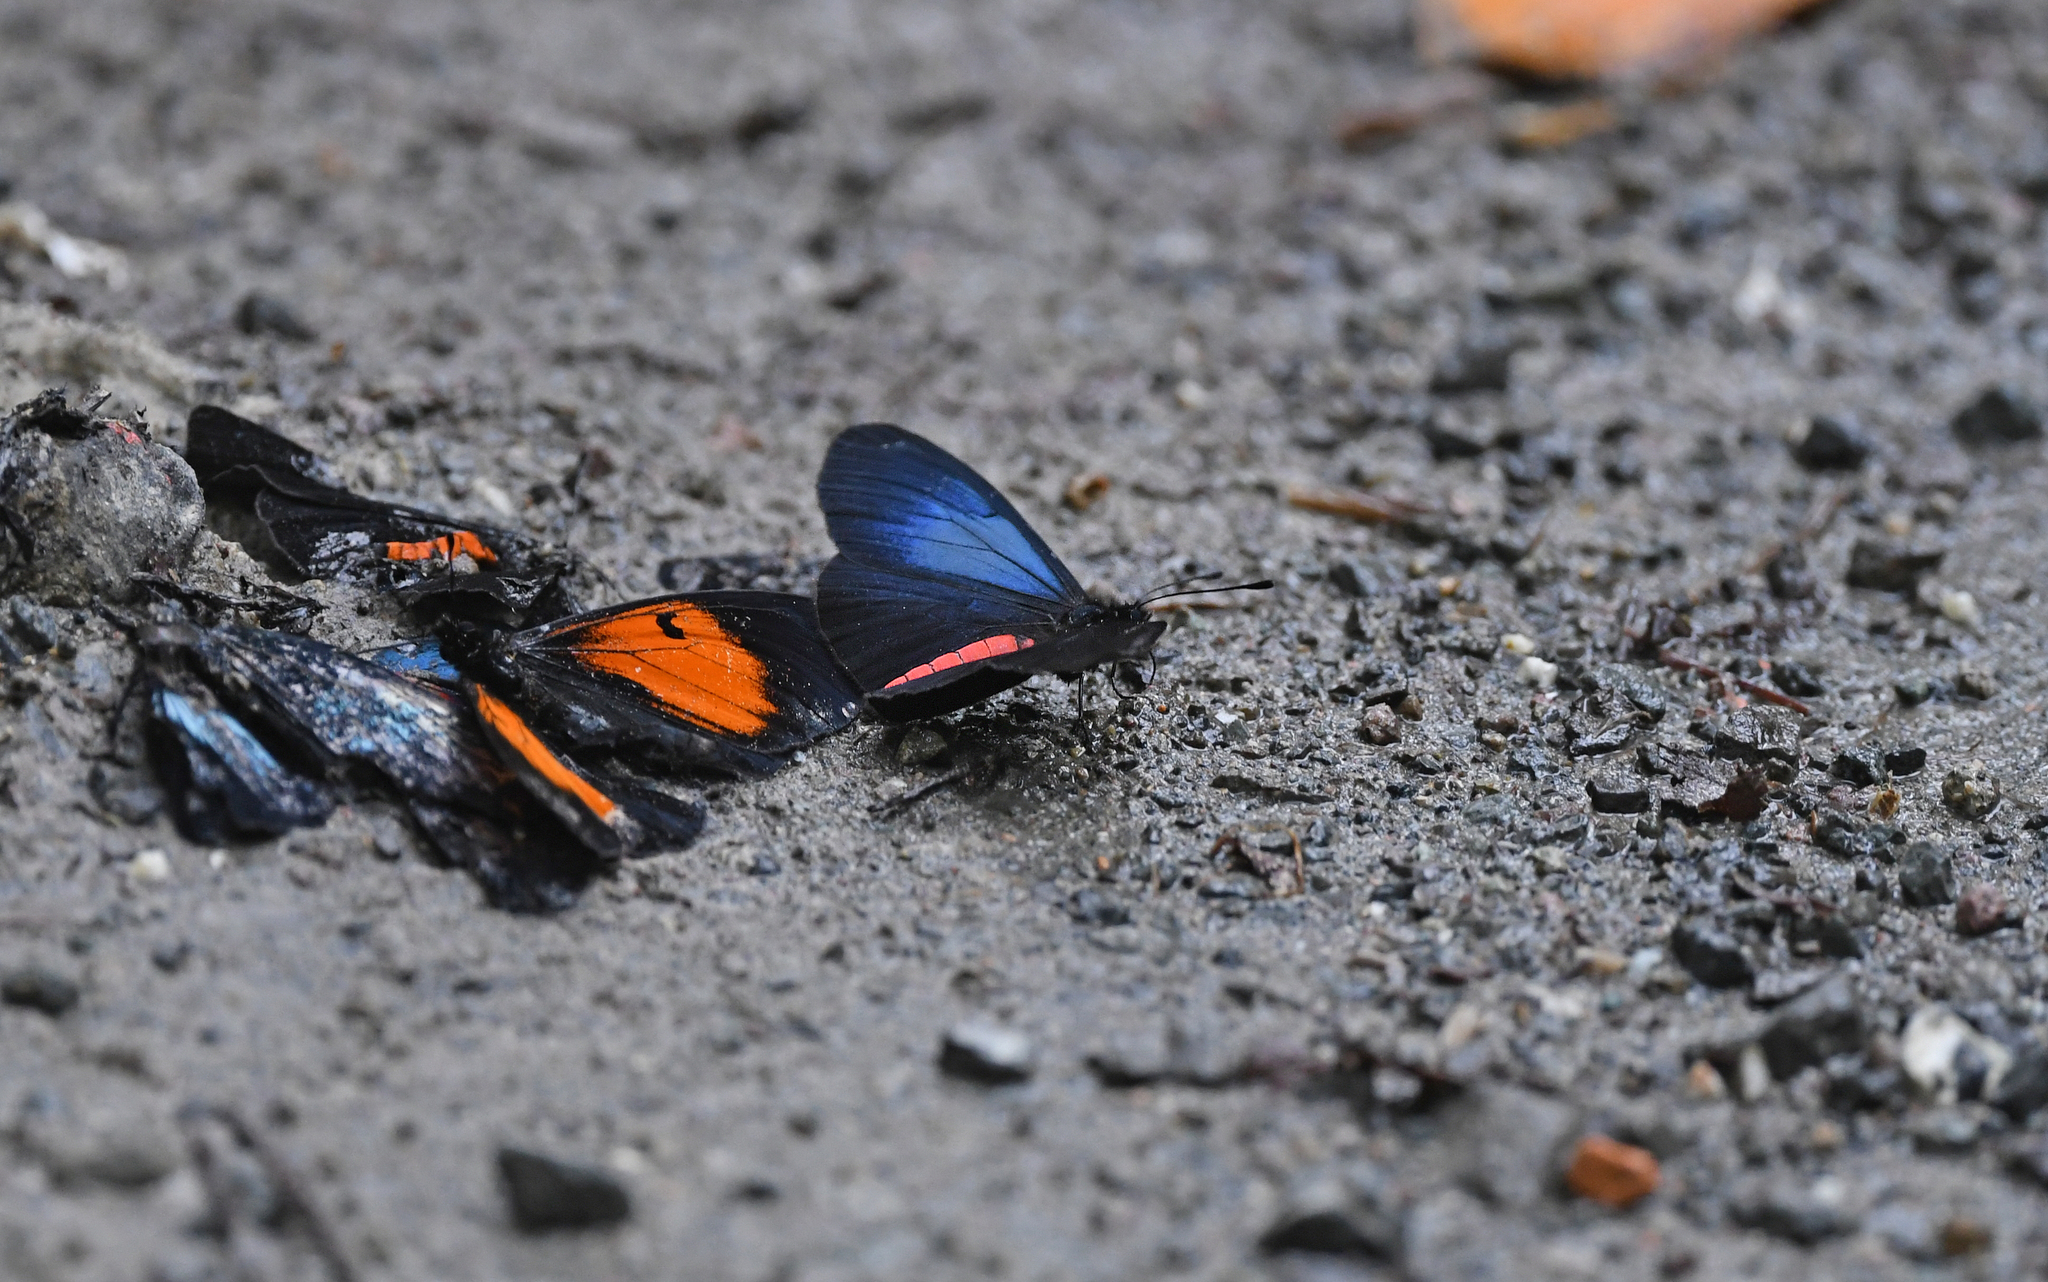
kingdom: Animalia
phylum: Arthropoda
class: Insecta
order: Lepidoptera
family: Nymphalidae
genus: Actinote
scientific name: Actinote neleus
